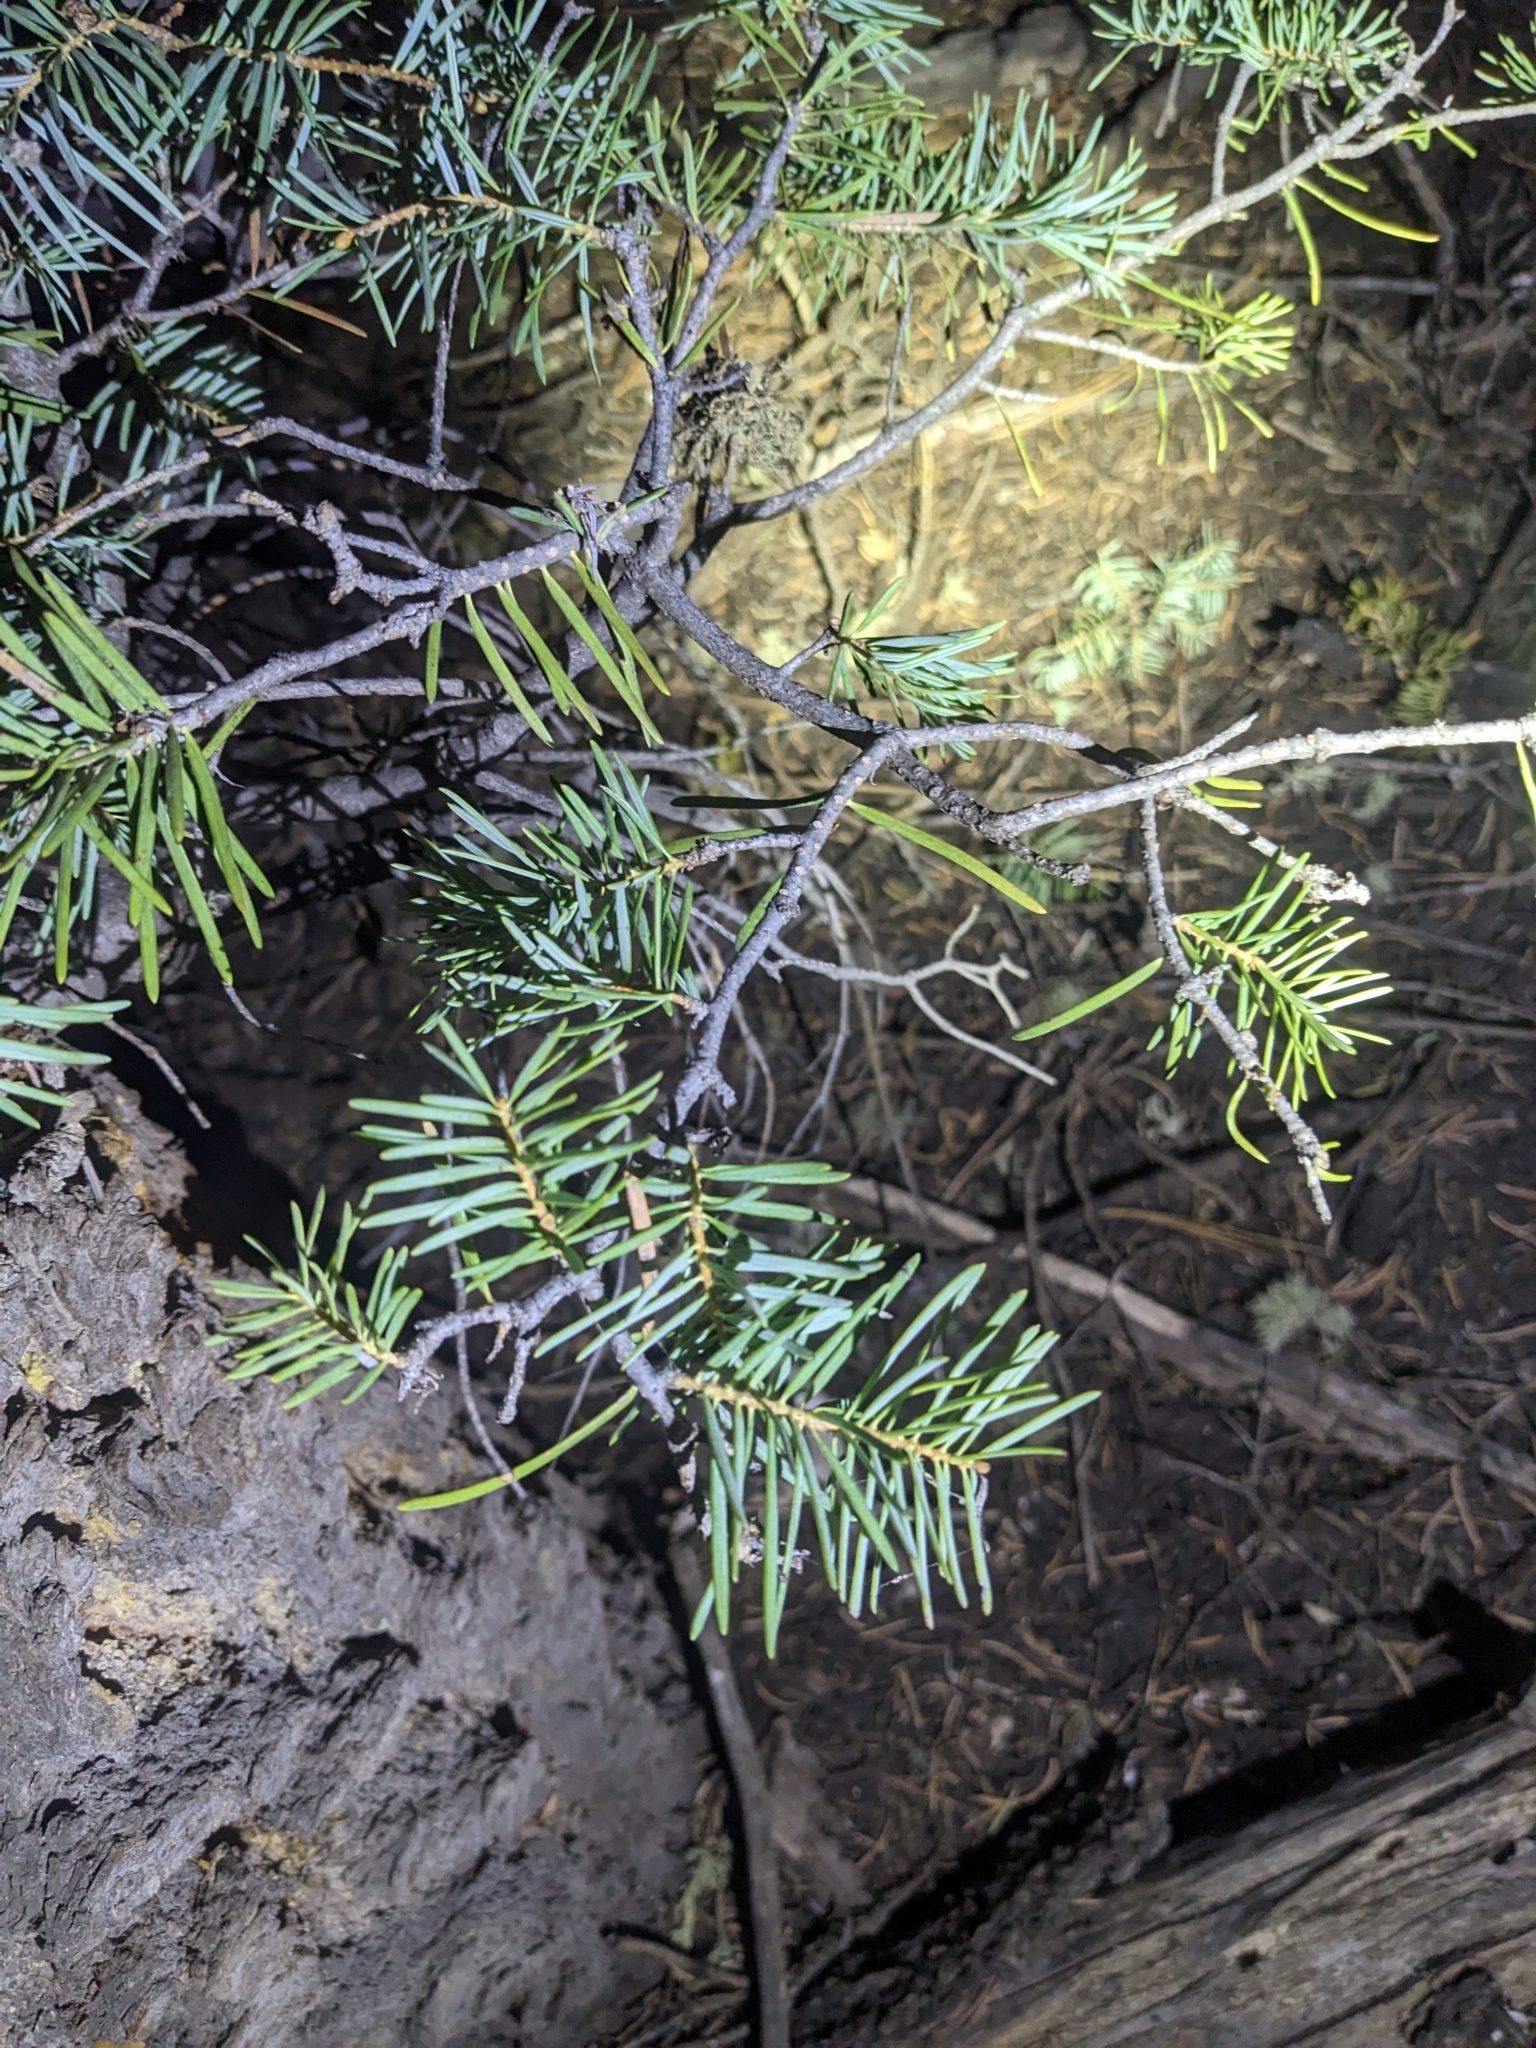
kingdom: Plantae
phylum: Tracheophyta
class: Pinopsida
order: Pinales
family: Pinaceae
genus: Abies
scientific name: Abies concolor
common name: Colorado fir
